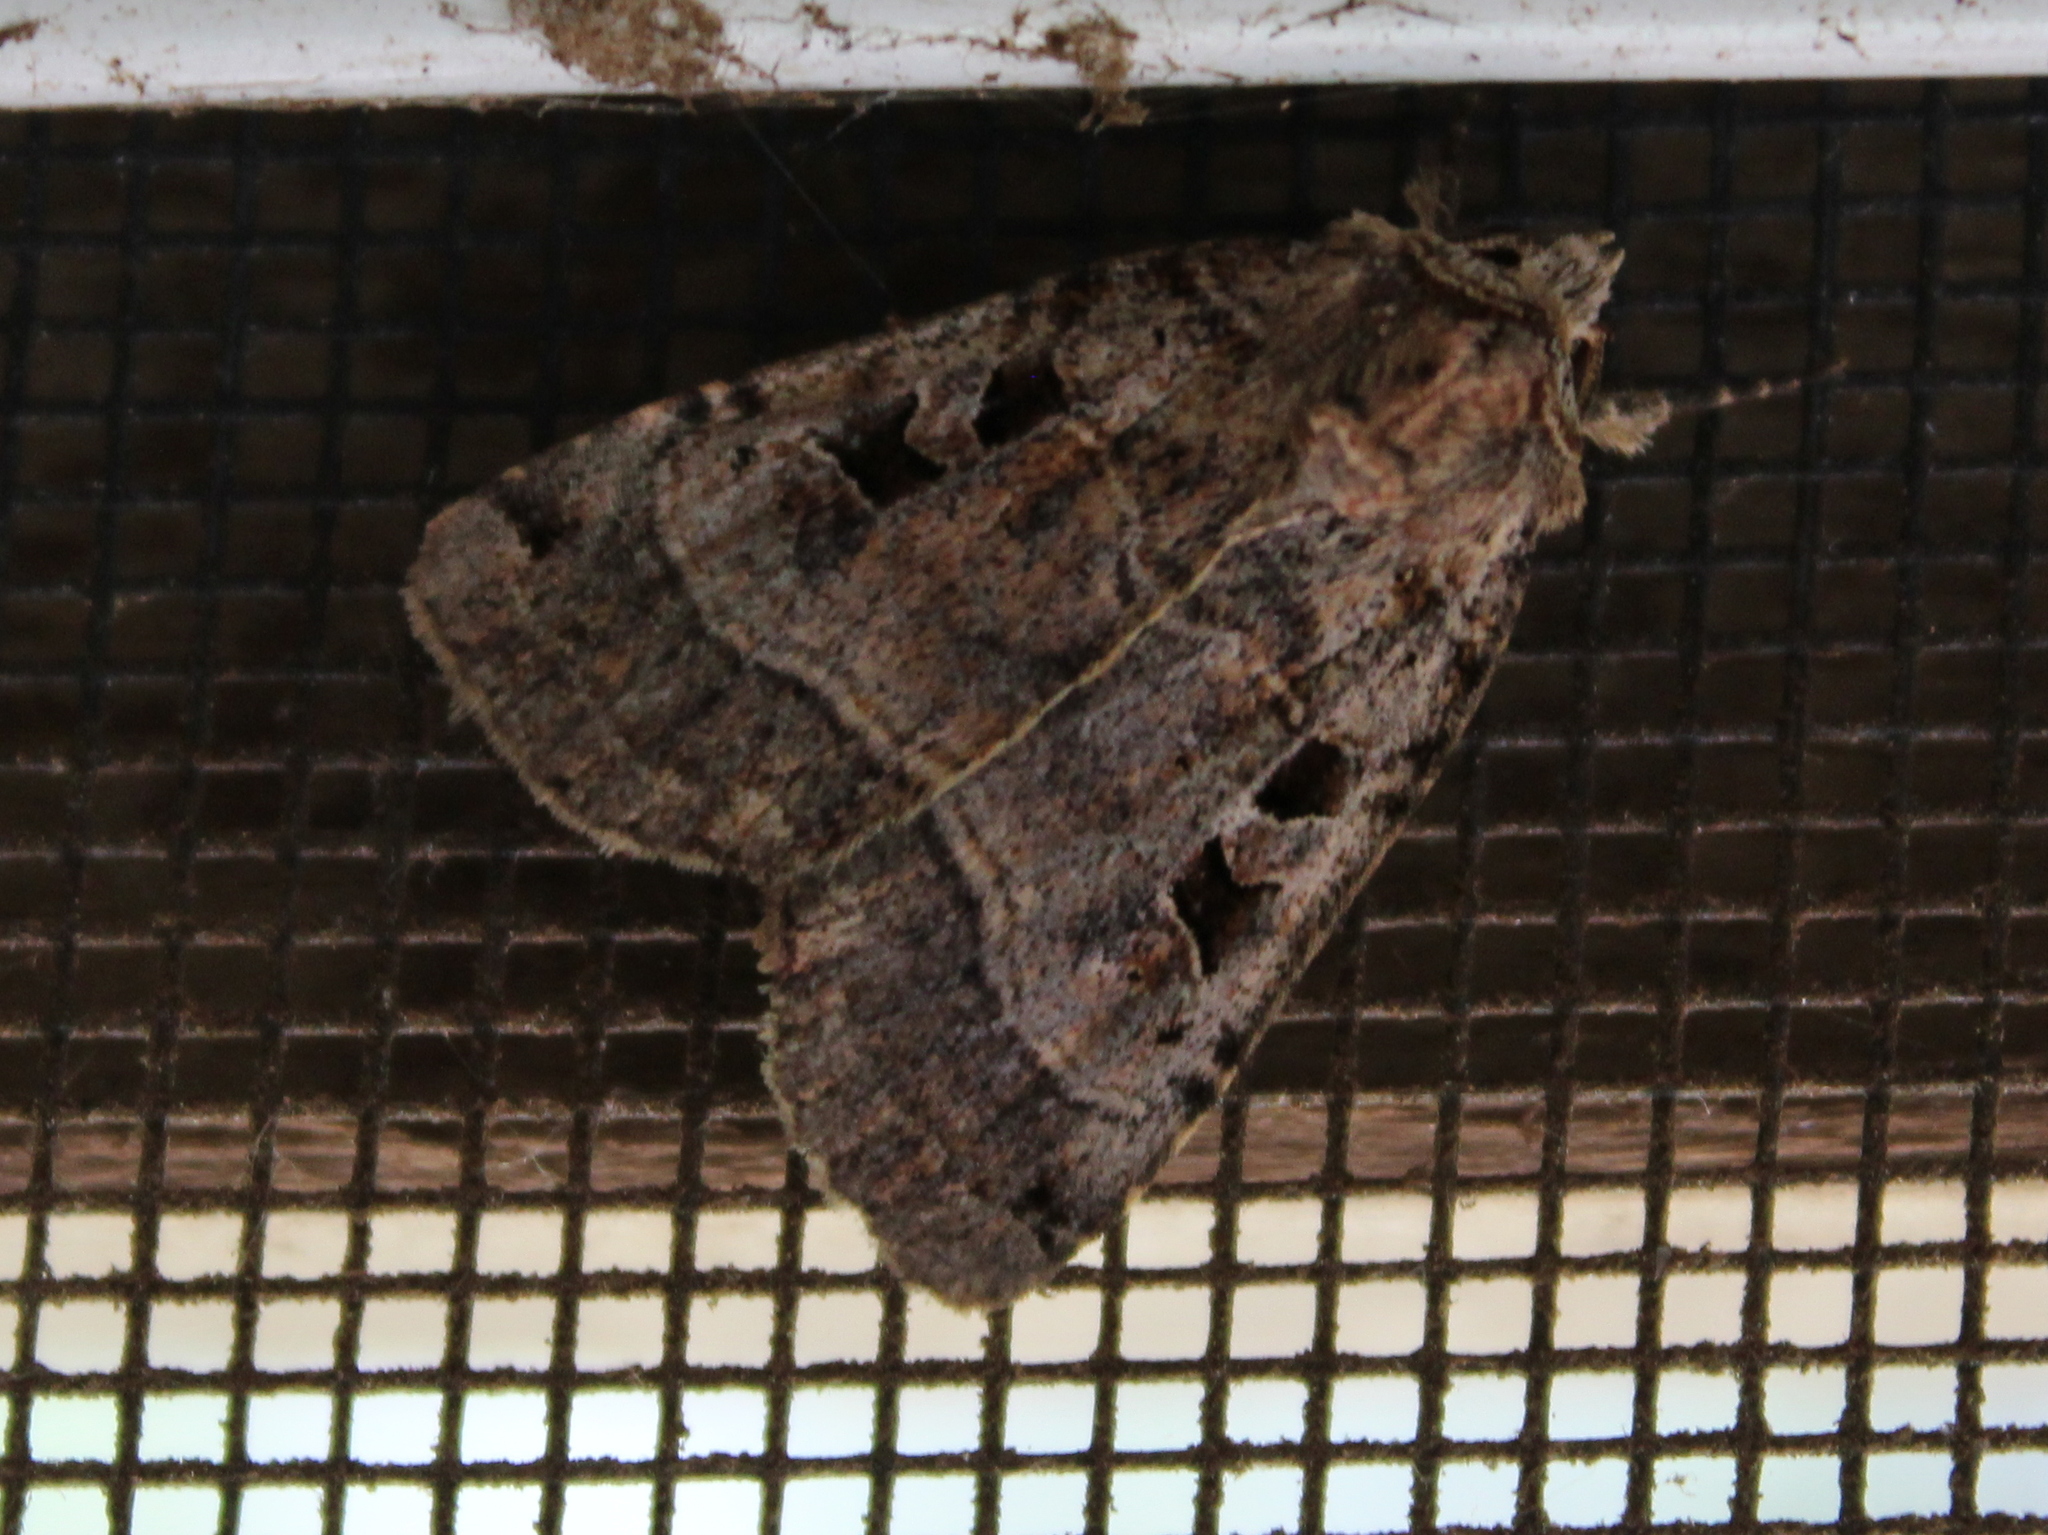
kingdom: Animalia
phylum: Arthropoda
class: Insecta
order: Lepidoptera
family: Noctuidae
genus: Xestia
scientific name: Xestia normaniana
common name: Norman's dart moth
